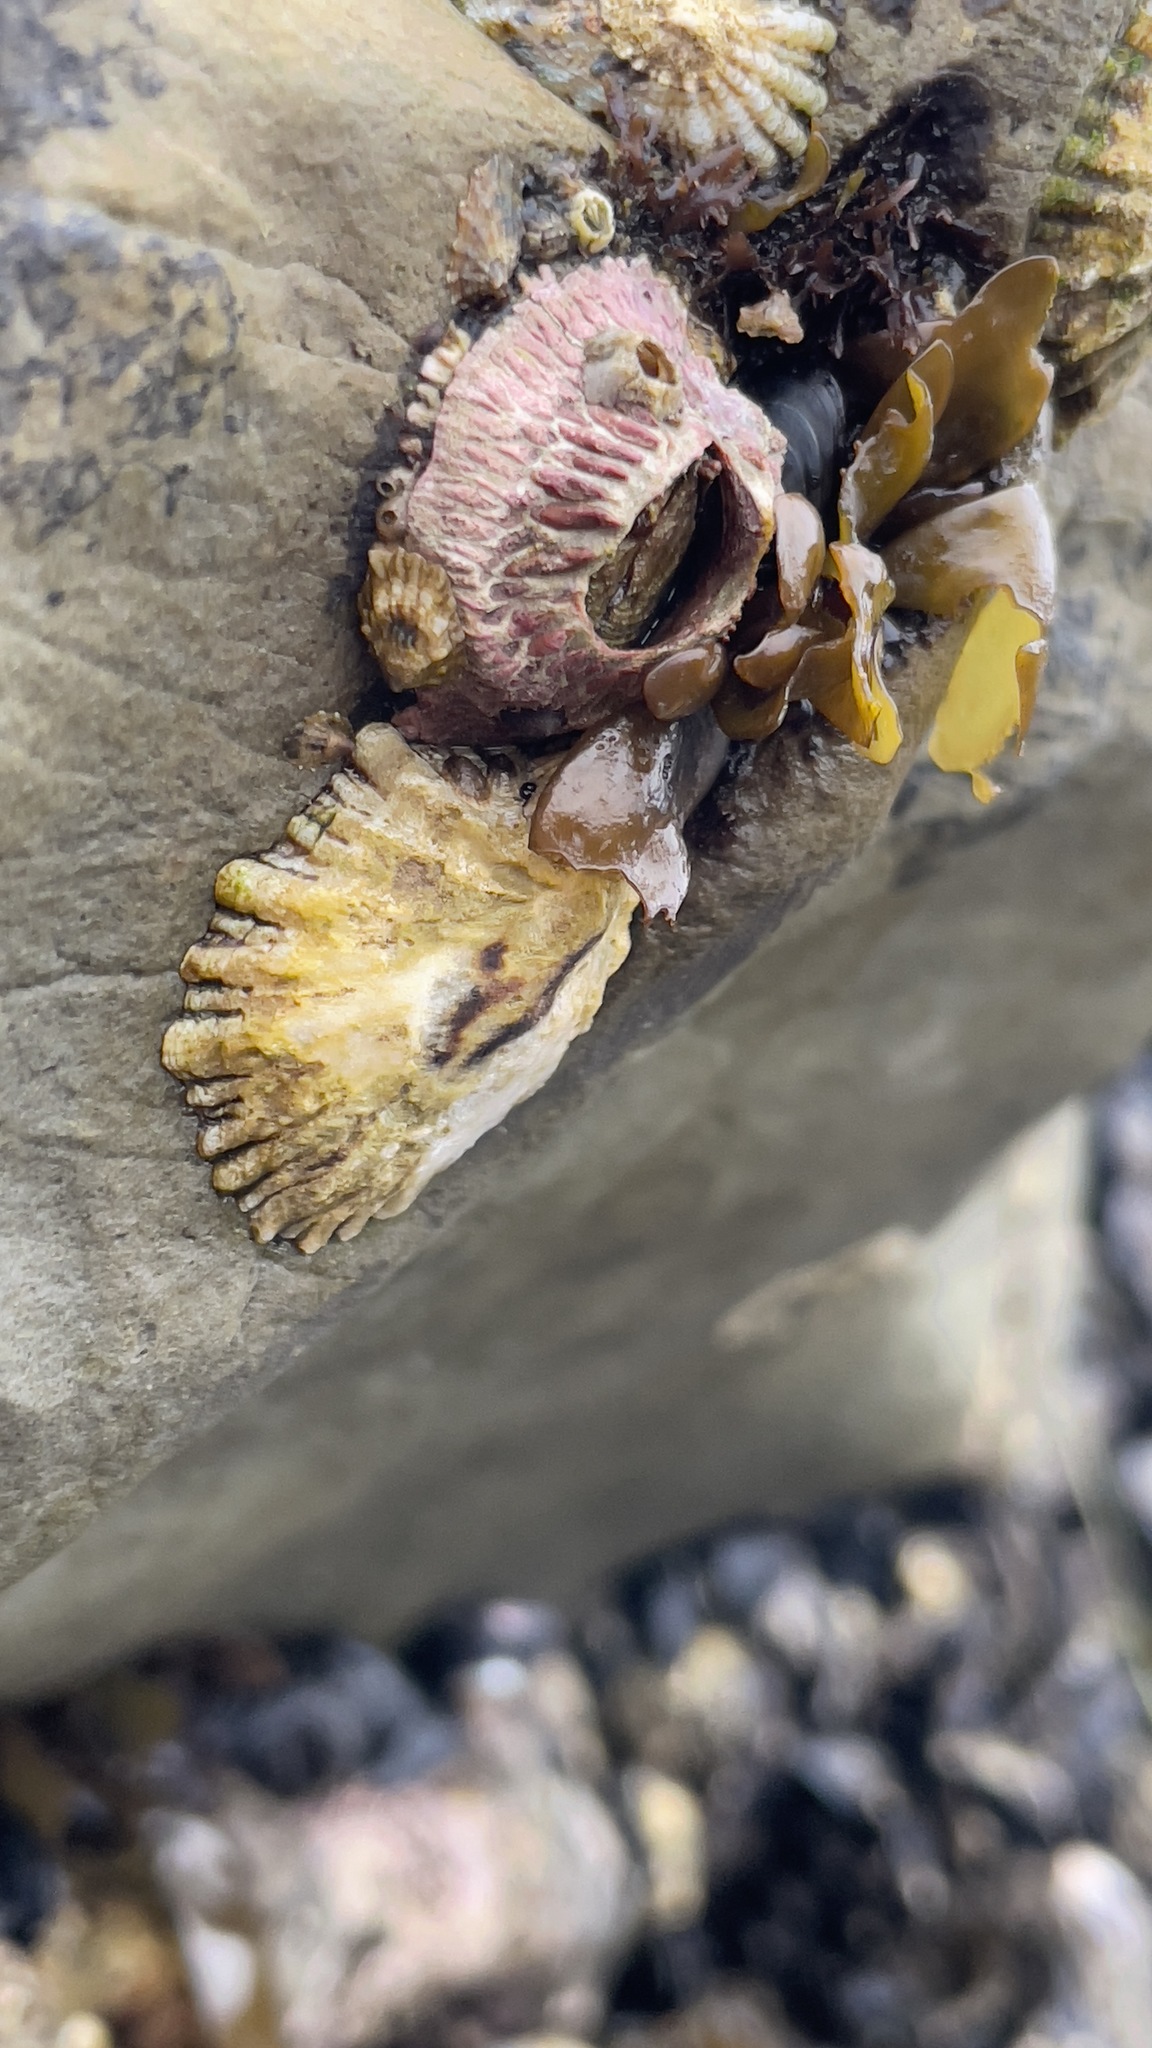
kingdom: Animalia
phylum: Arthropoda
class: Maxillopoda
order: Sessilia
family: Tetraclitidae
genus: Tetraclita
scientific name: Tetraclita rubescens
